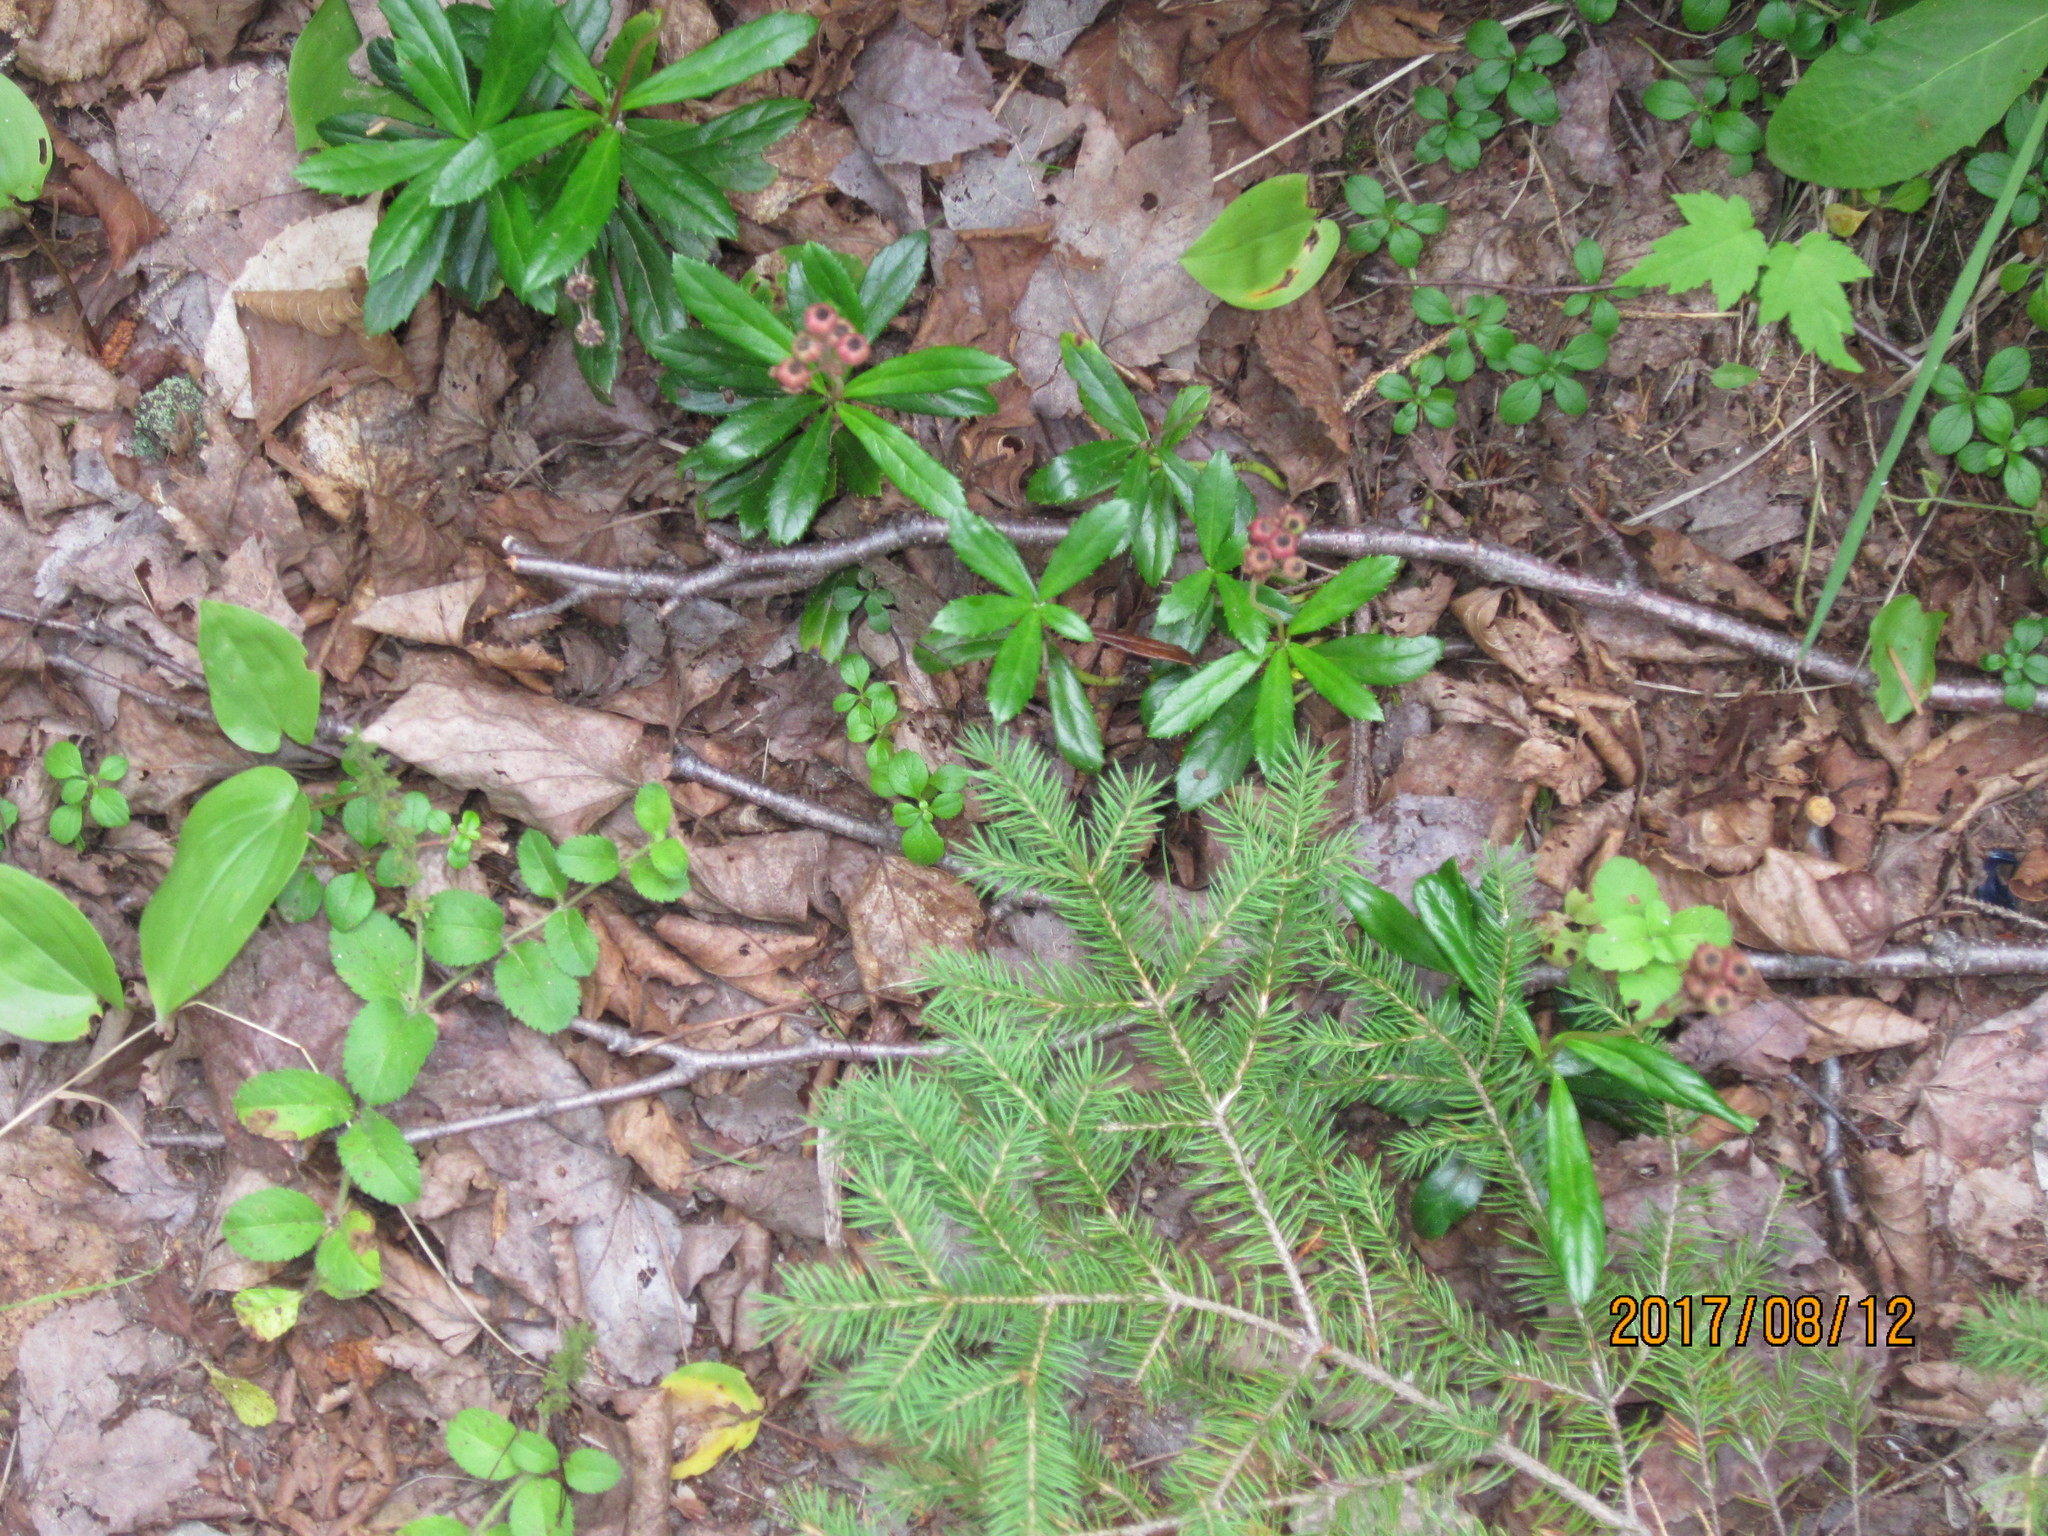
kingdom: Plantae
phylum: Tracheophyta
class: Magnoliopsida
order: Ericales
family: Ericaceae
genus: Chimaphila
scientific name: Chimaphila umbellata
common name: Pipsissewa
